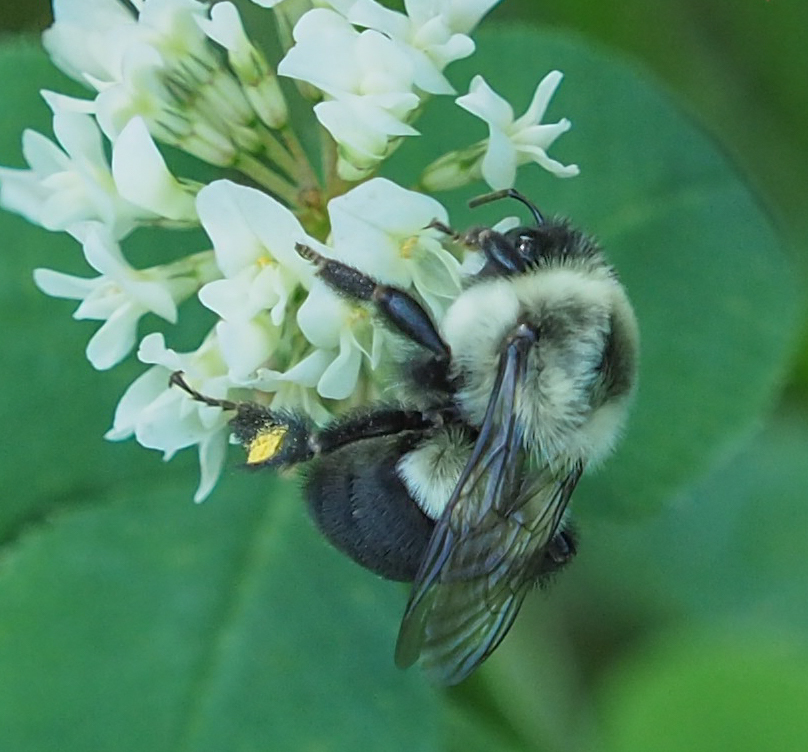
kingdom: Animalia
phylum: Arthropoda
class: Insecta
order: Hymenoptera
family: Apidae
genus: Bombus
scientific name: Bombus impatiens
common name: Common eastern bumble bee
